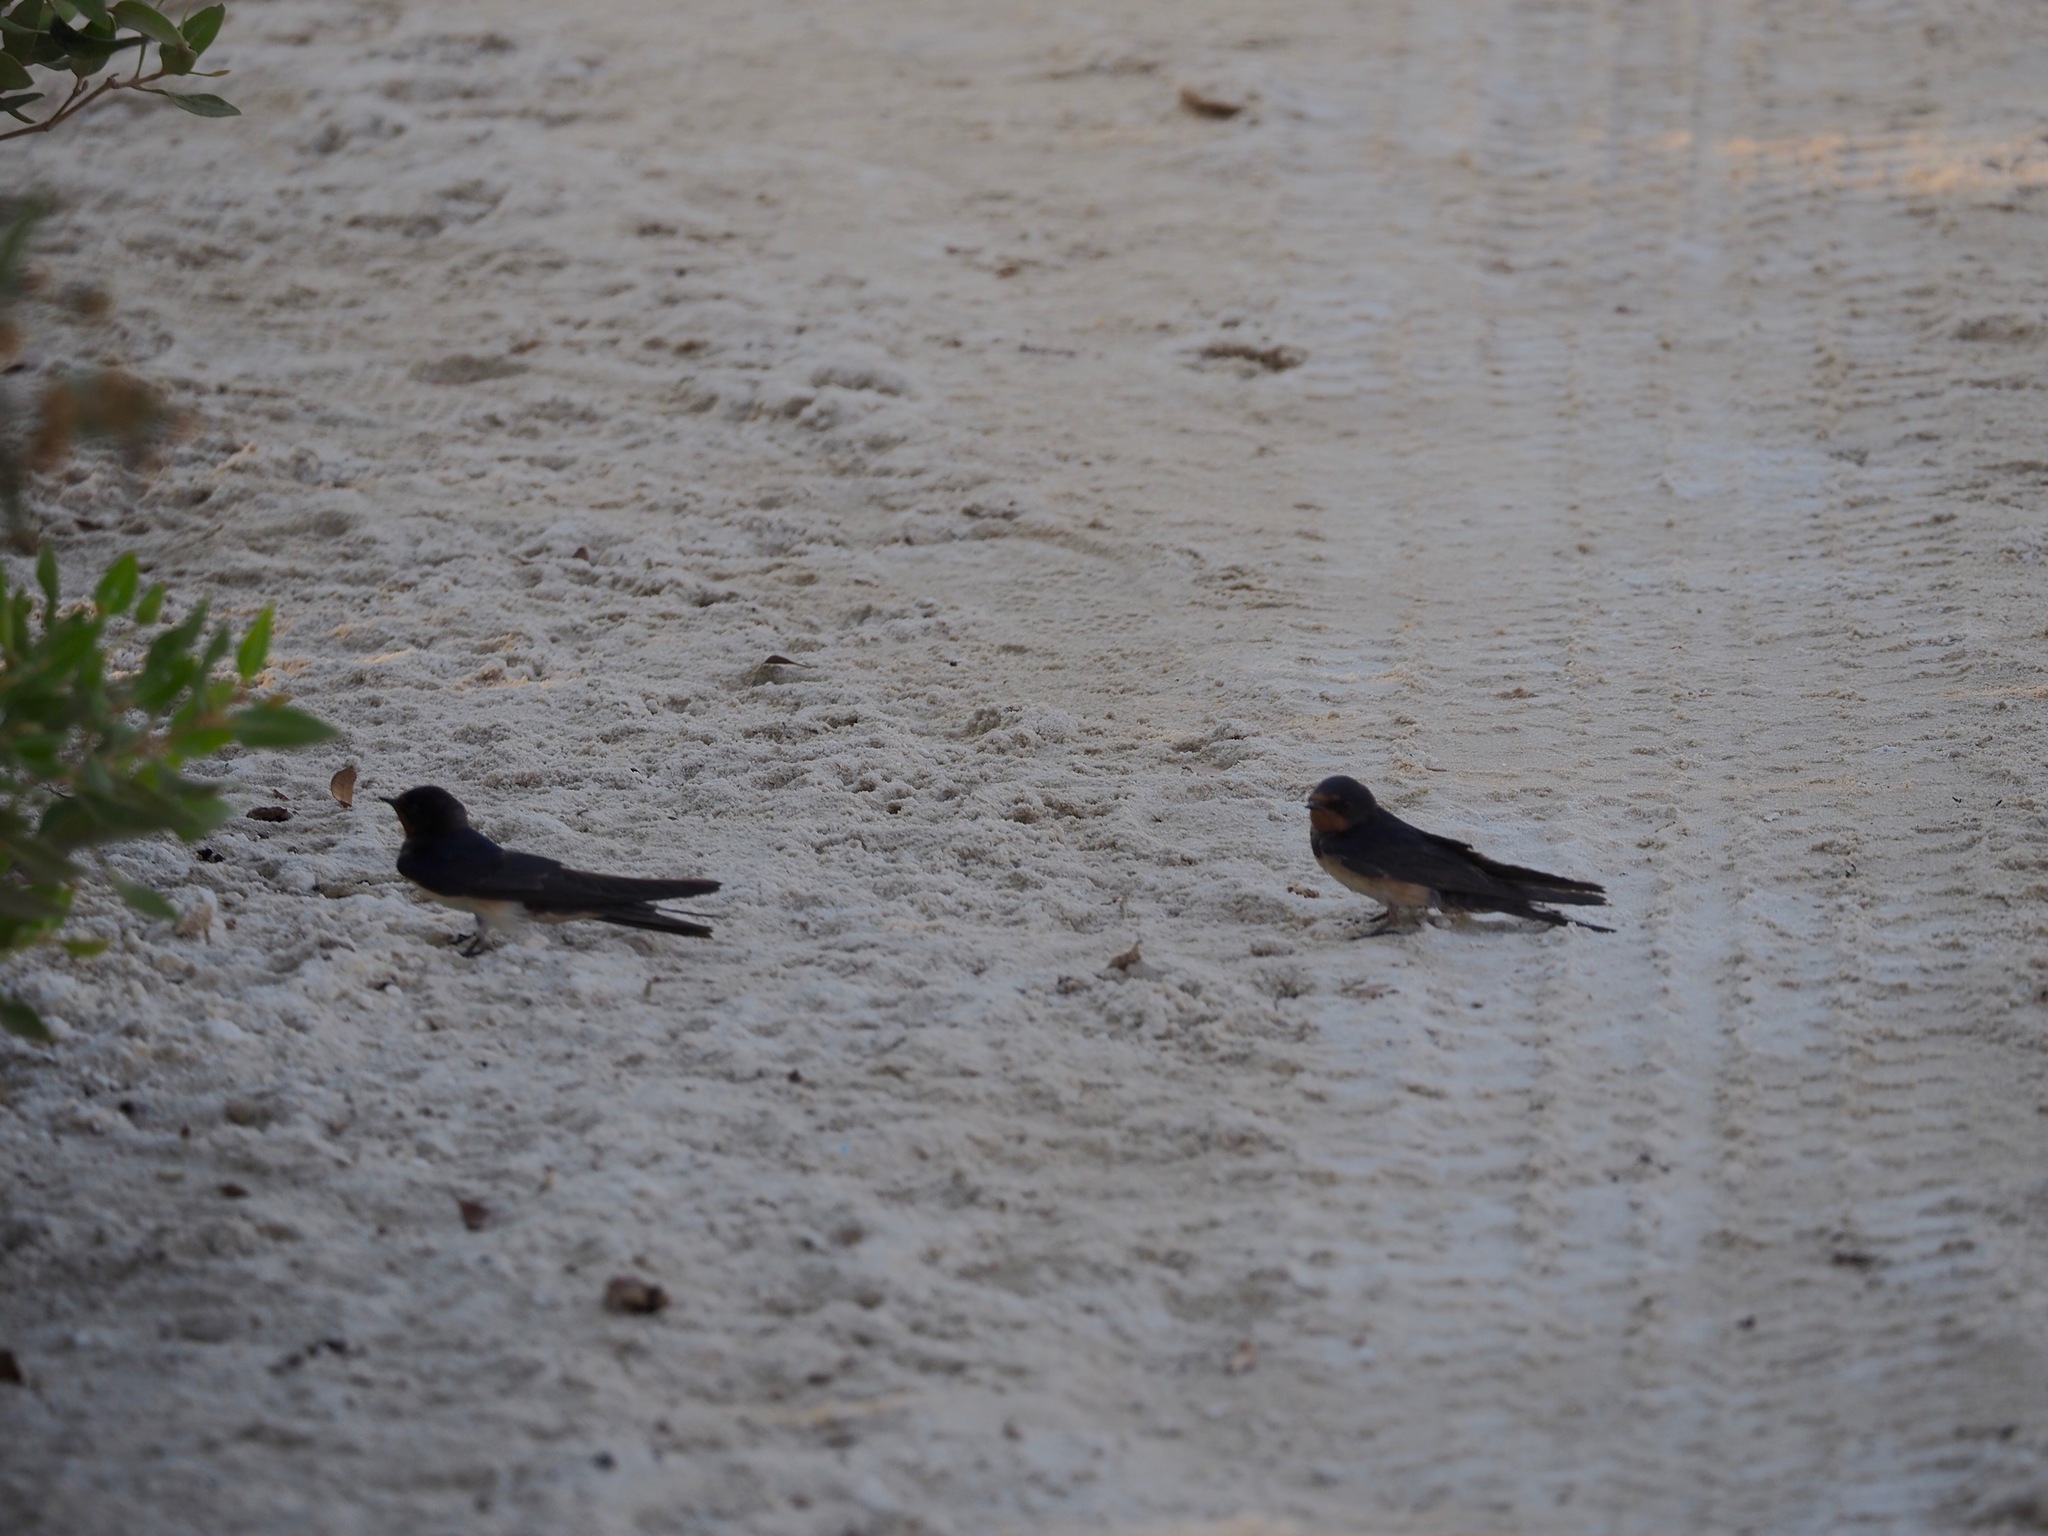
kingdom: Animalia
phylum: Chordata
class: Aves
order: Passeriformes
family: Hirundinidae
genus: Hirundo
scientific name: Hirundo rustica
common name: Barn swallow
